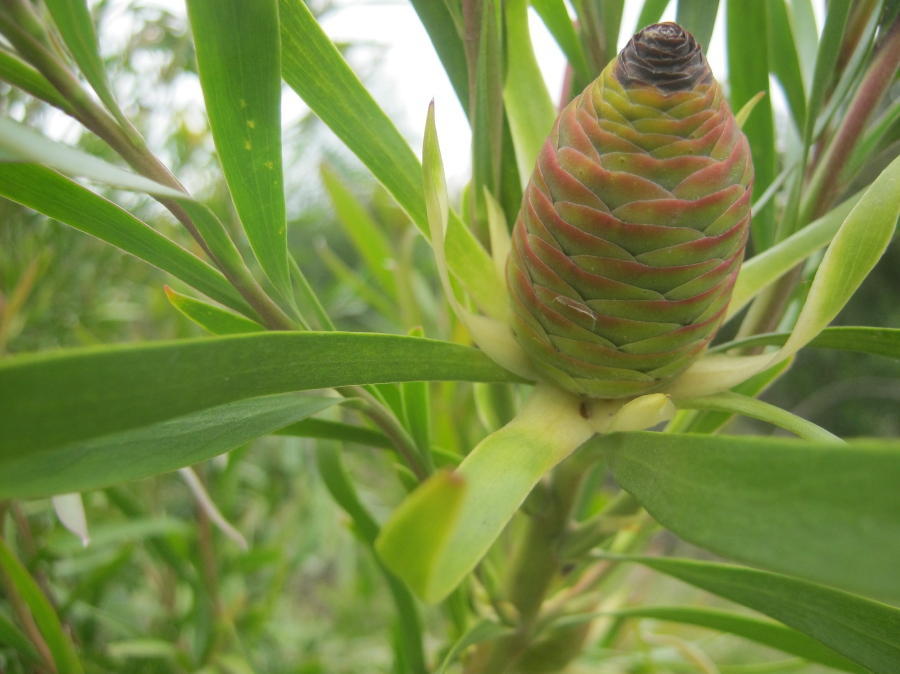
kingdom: Plantae
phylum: Tracheophyta
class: Magnoliopsida
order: Proteales
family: Proteaceae
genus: Leucadendron
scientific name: Leucadendron eucalyptifolium
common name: Gum-leaved conebush
